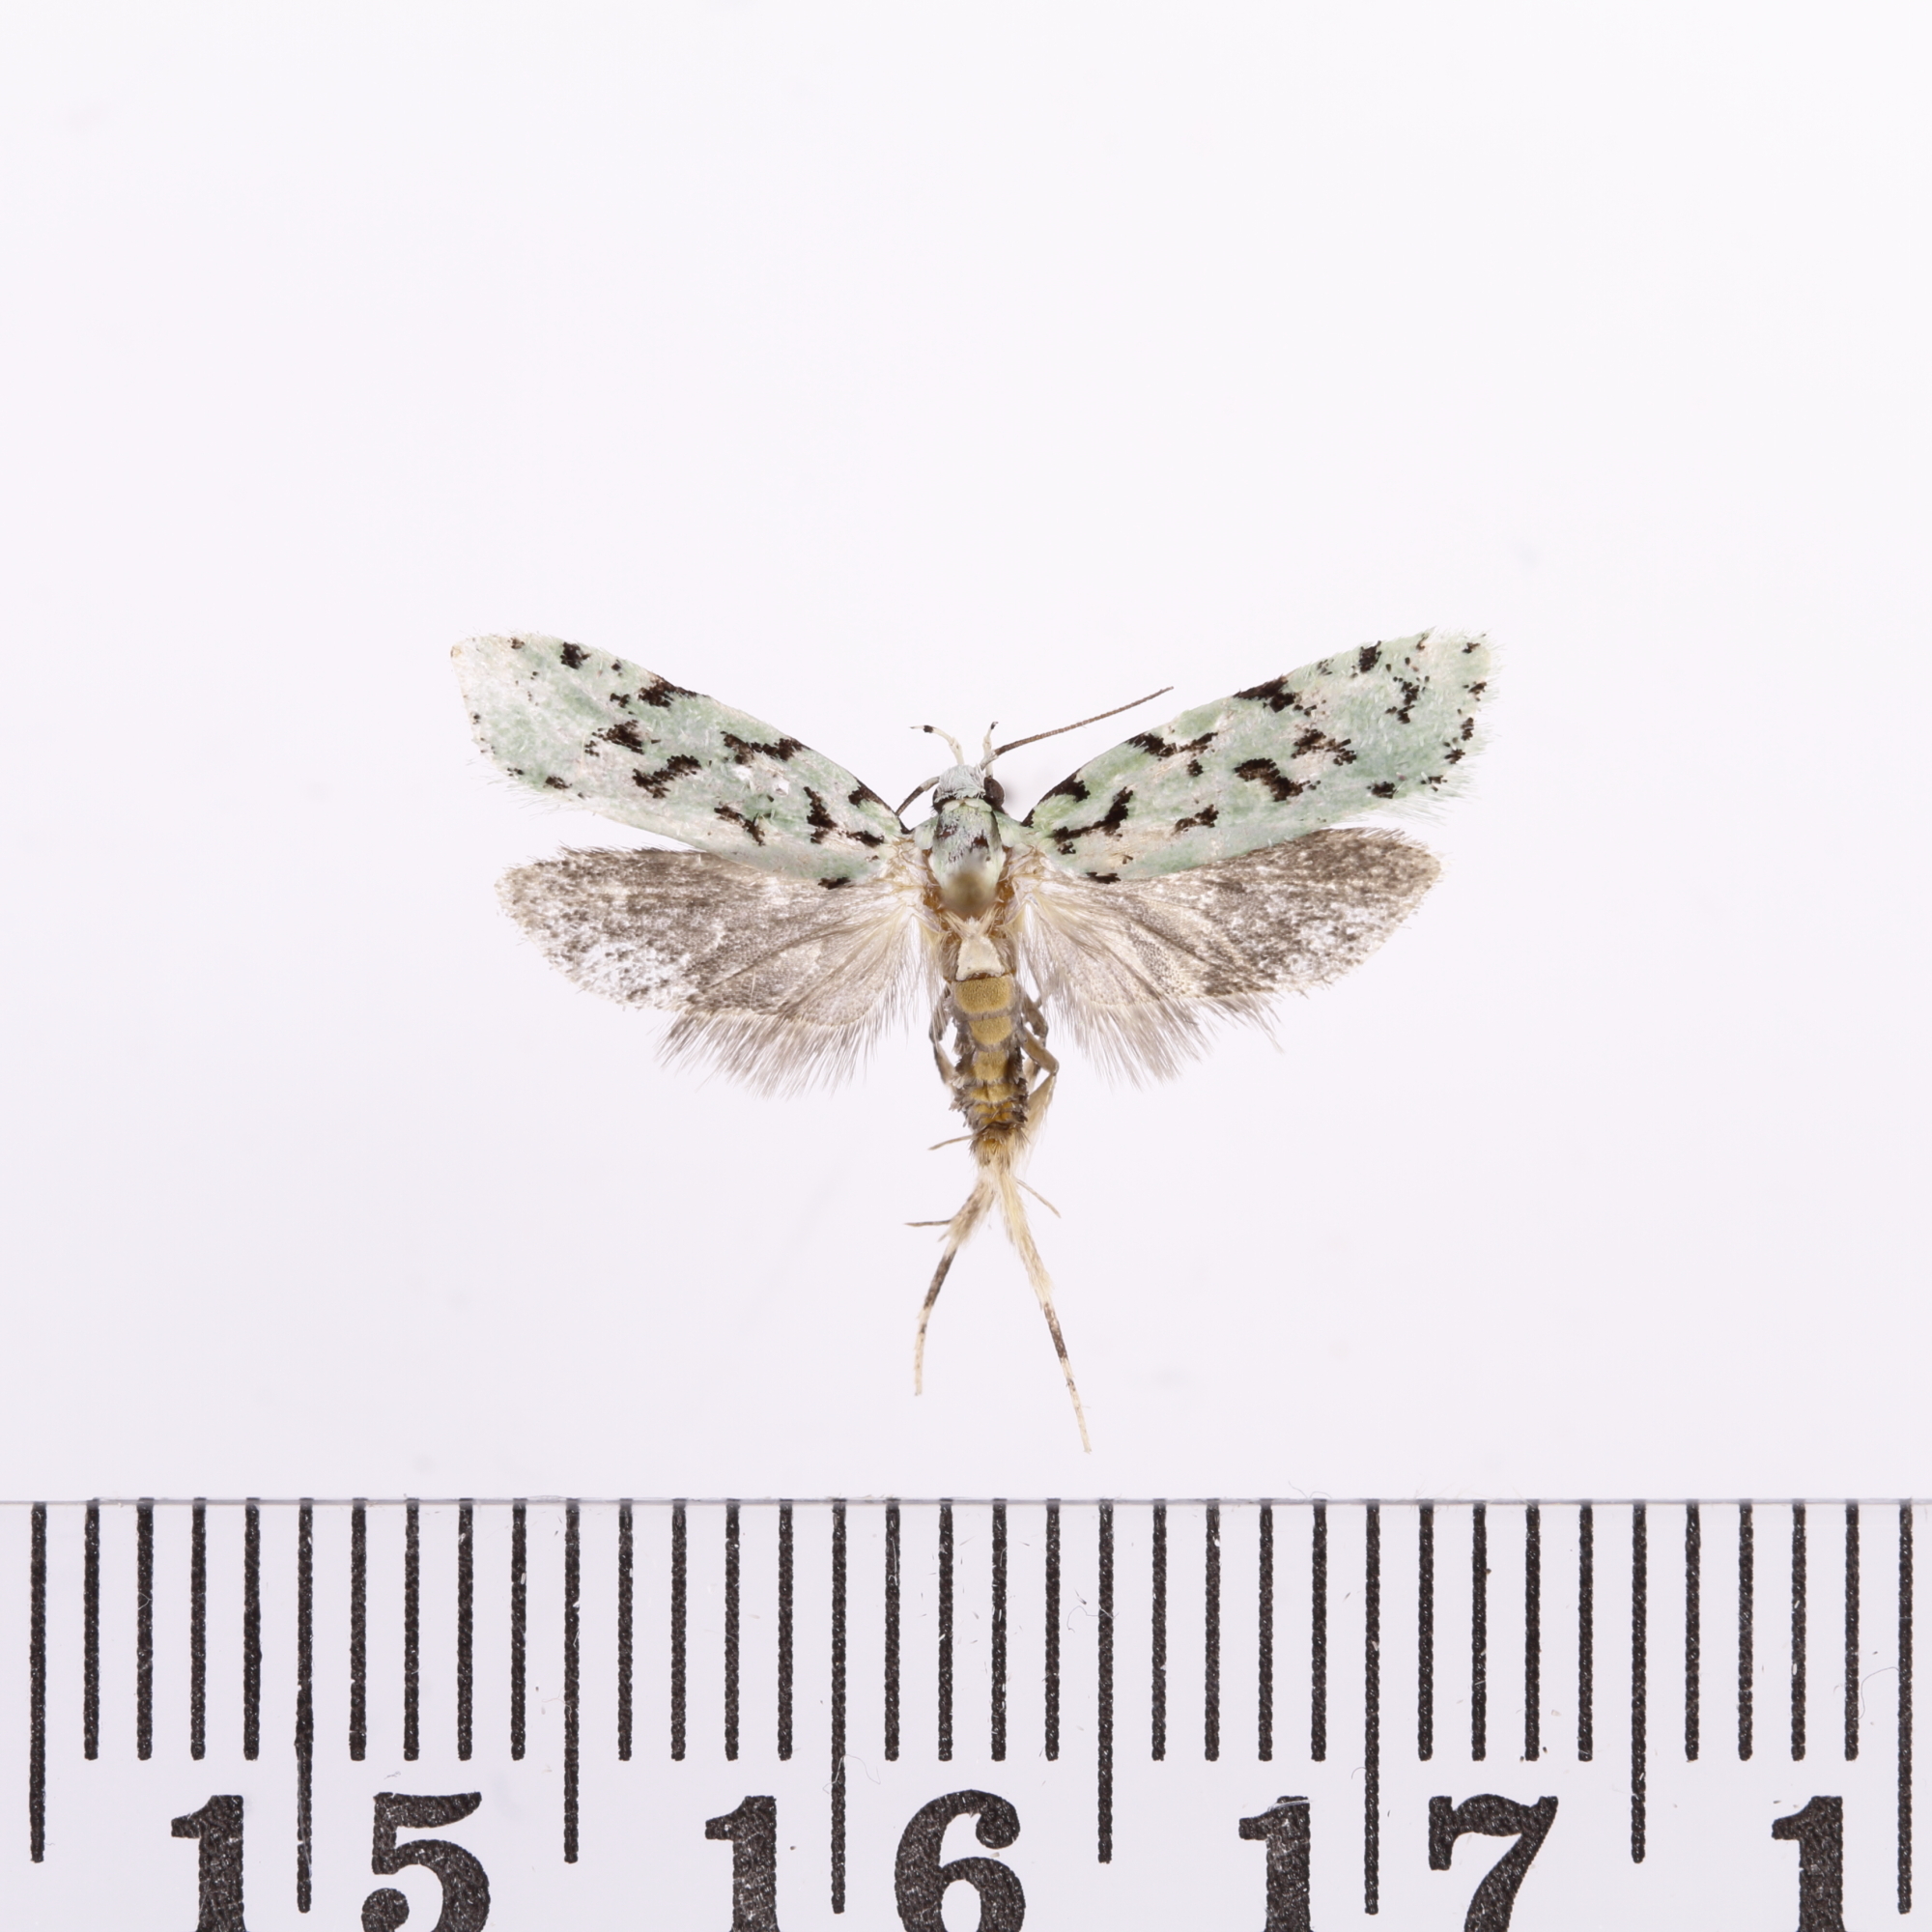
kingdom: Animalia
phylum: Arthropoda
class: Insecta
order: Lepidoptera
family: Oecophoridae
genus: Izatha
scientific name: Izatha huttoni
